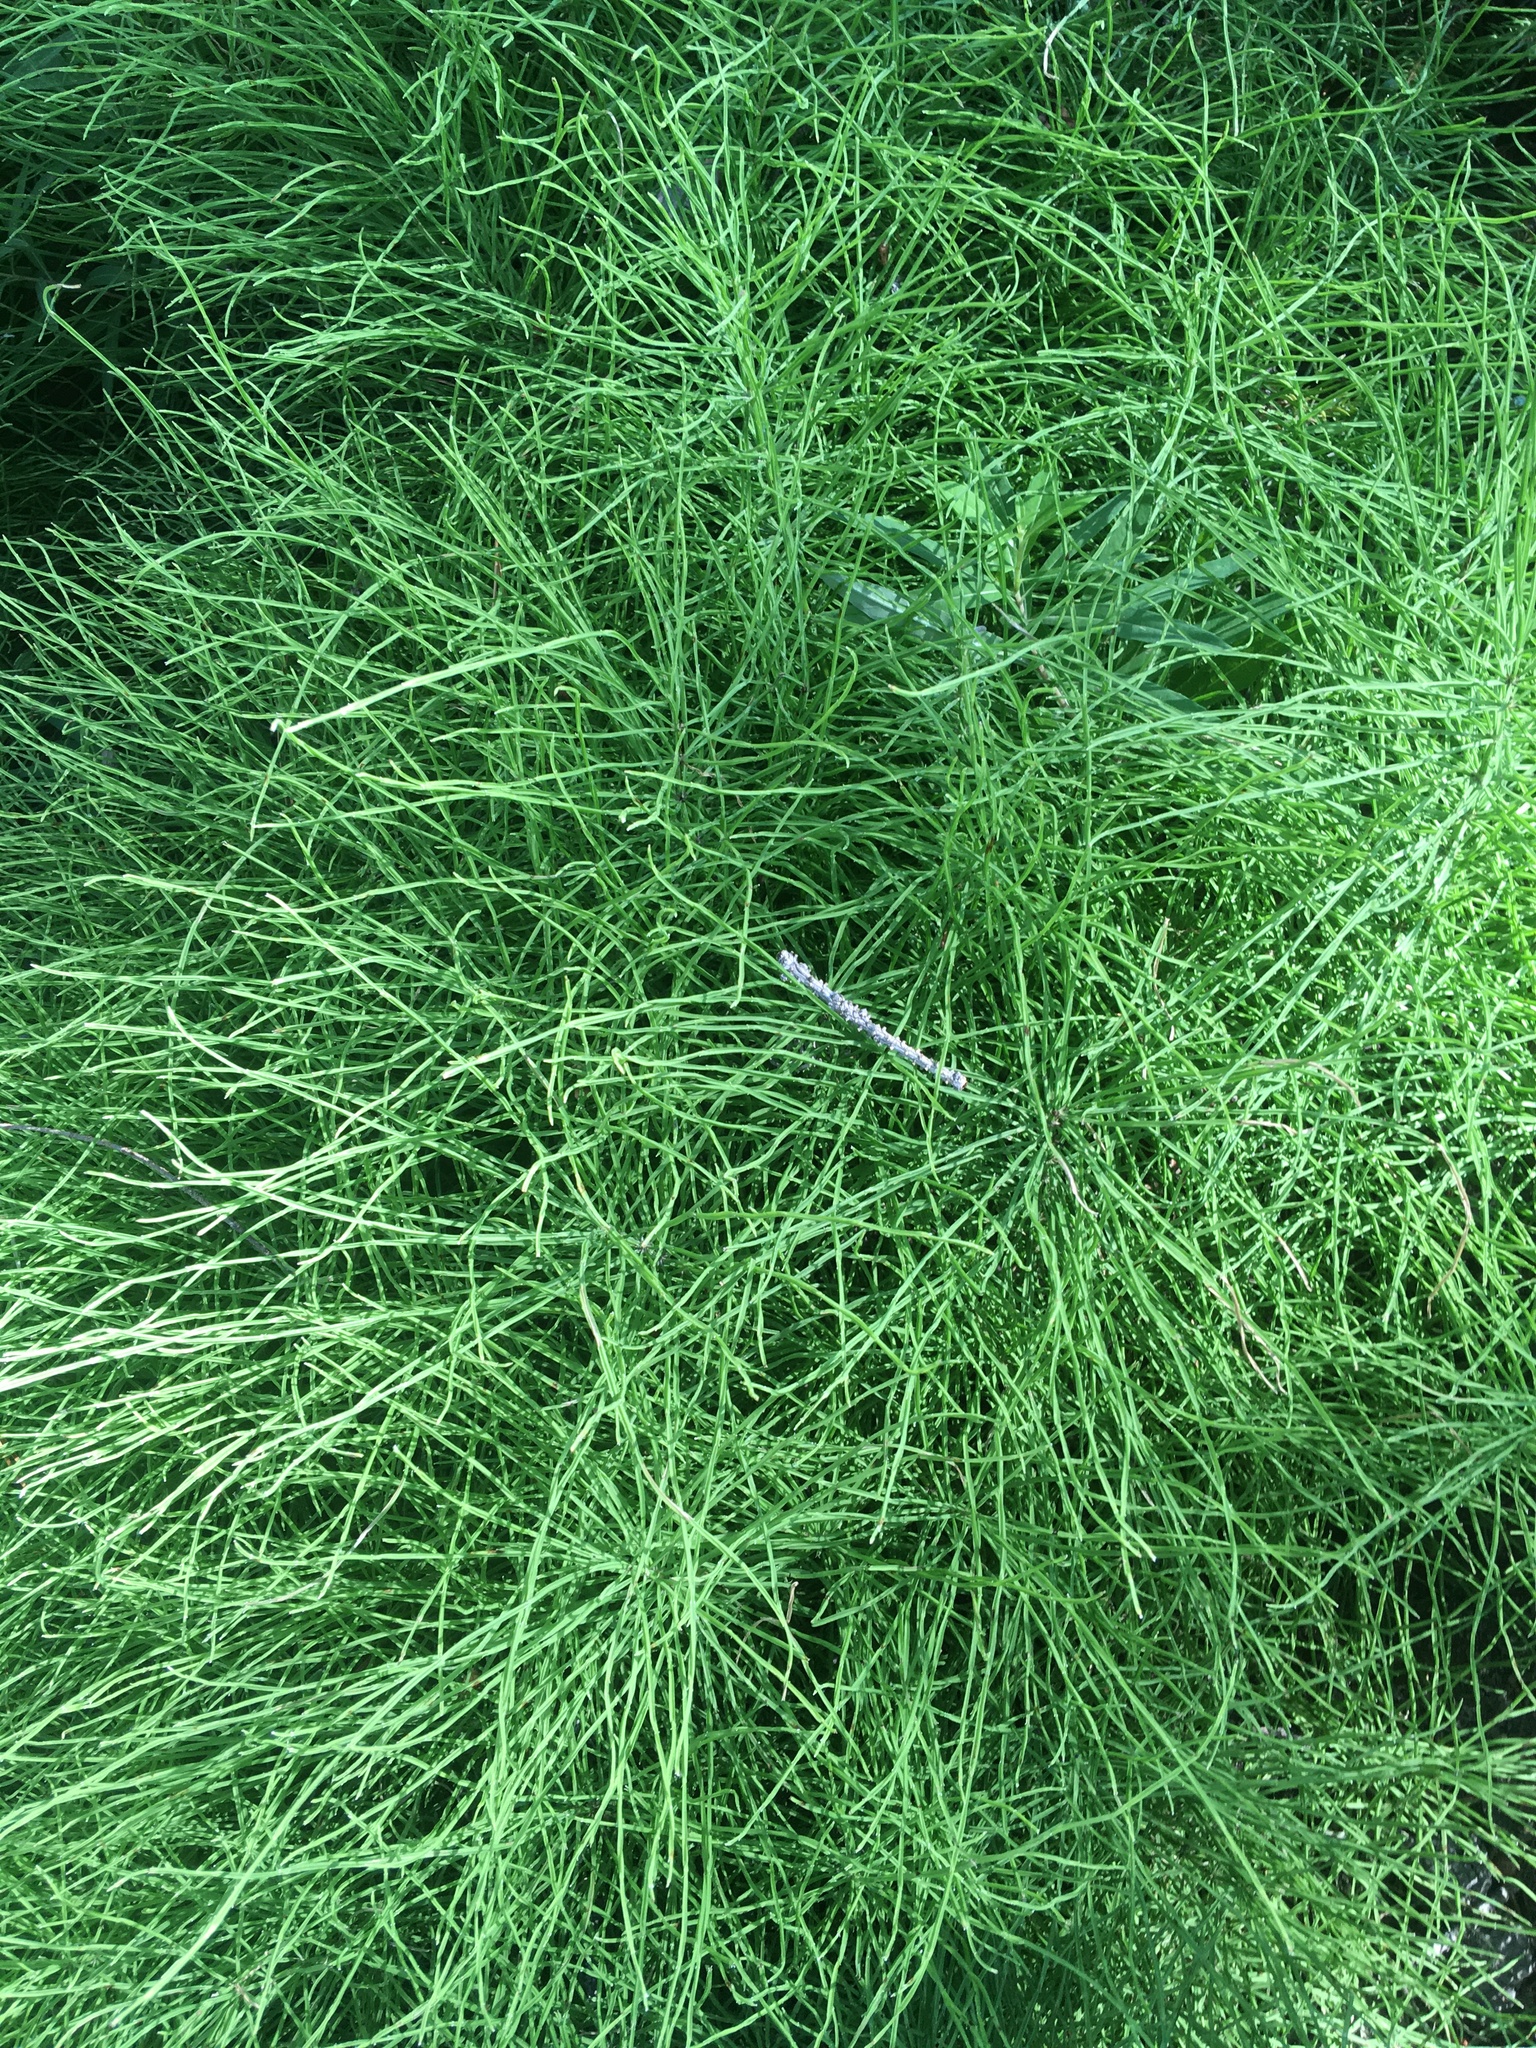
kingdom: Plantae
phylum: Tracheophyta
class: Polypodiopsida
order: Equisetales
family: Equisetaceae
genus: Equisetum
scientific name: Equisetum arvense
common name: Field horsetail
